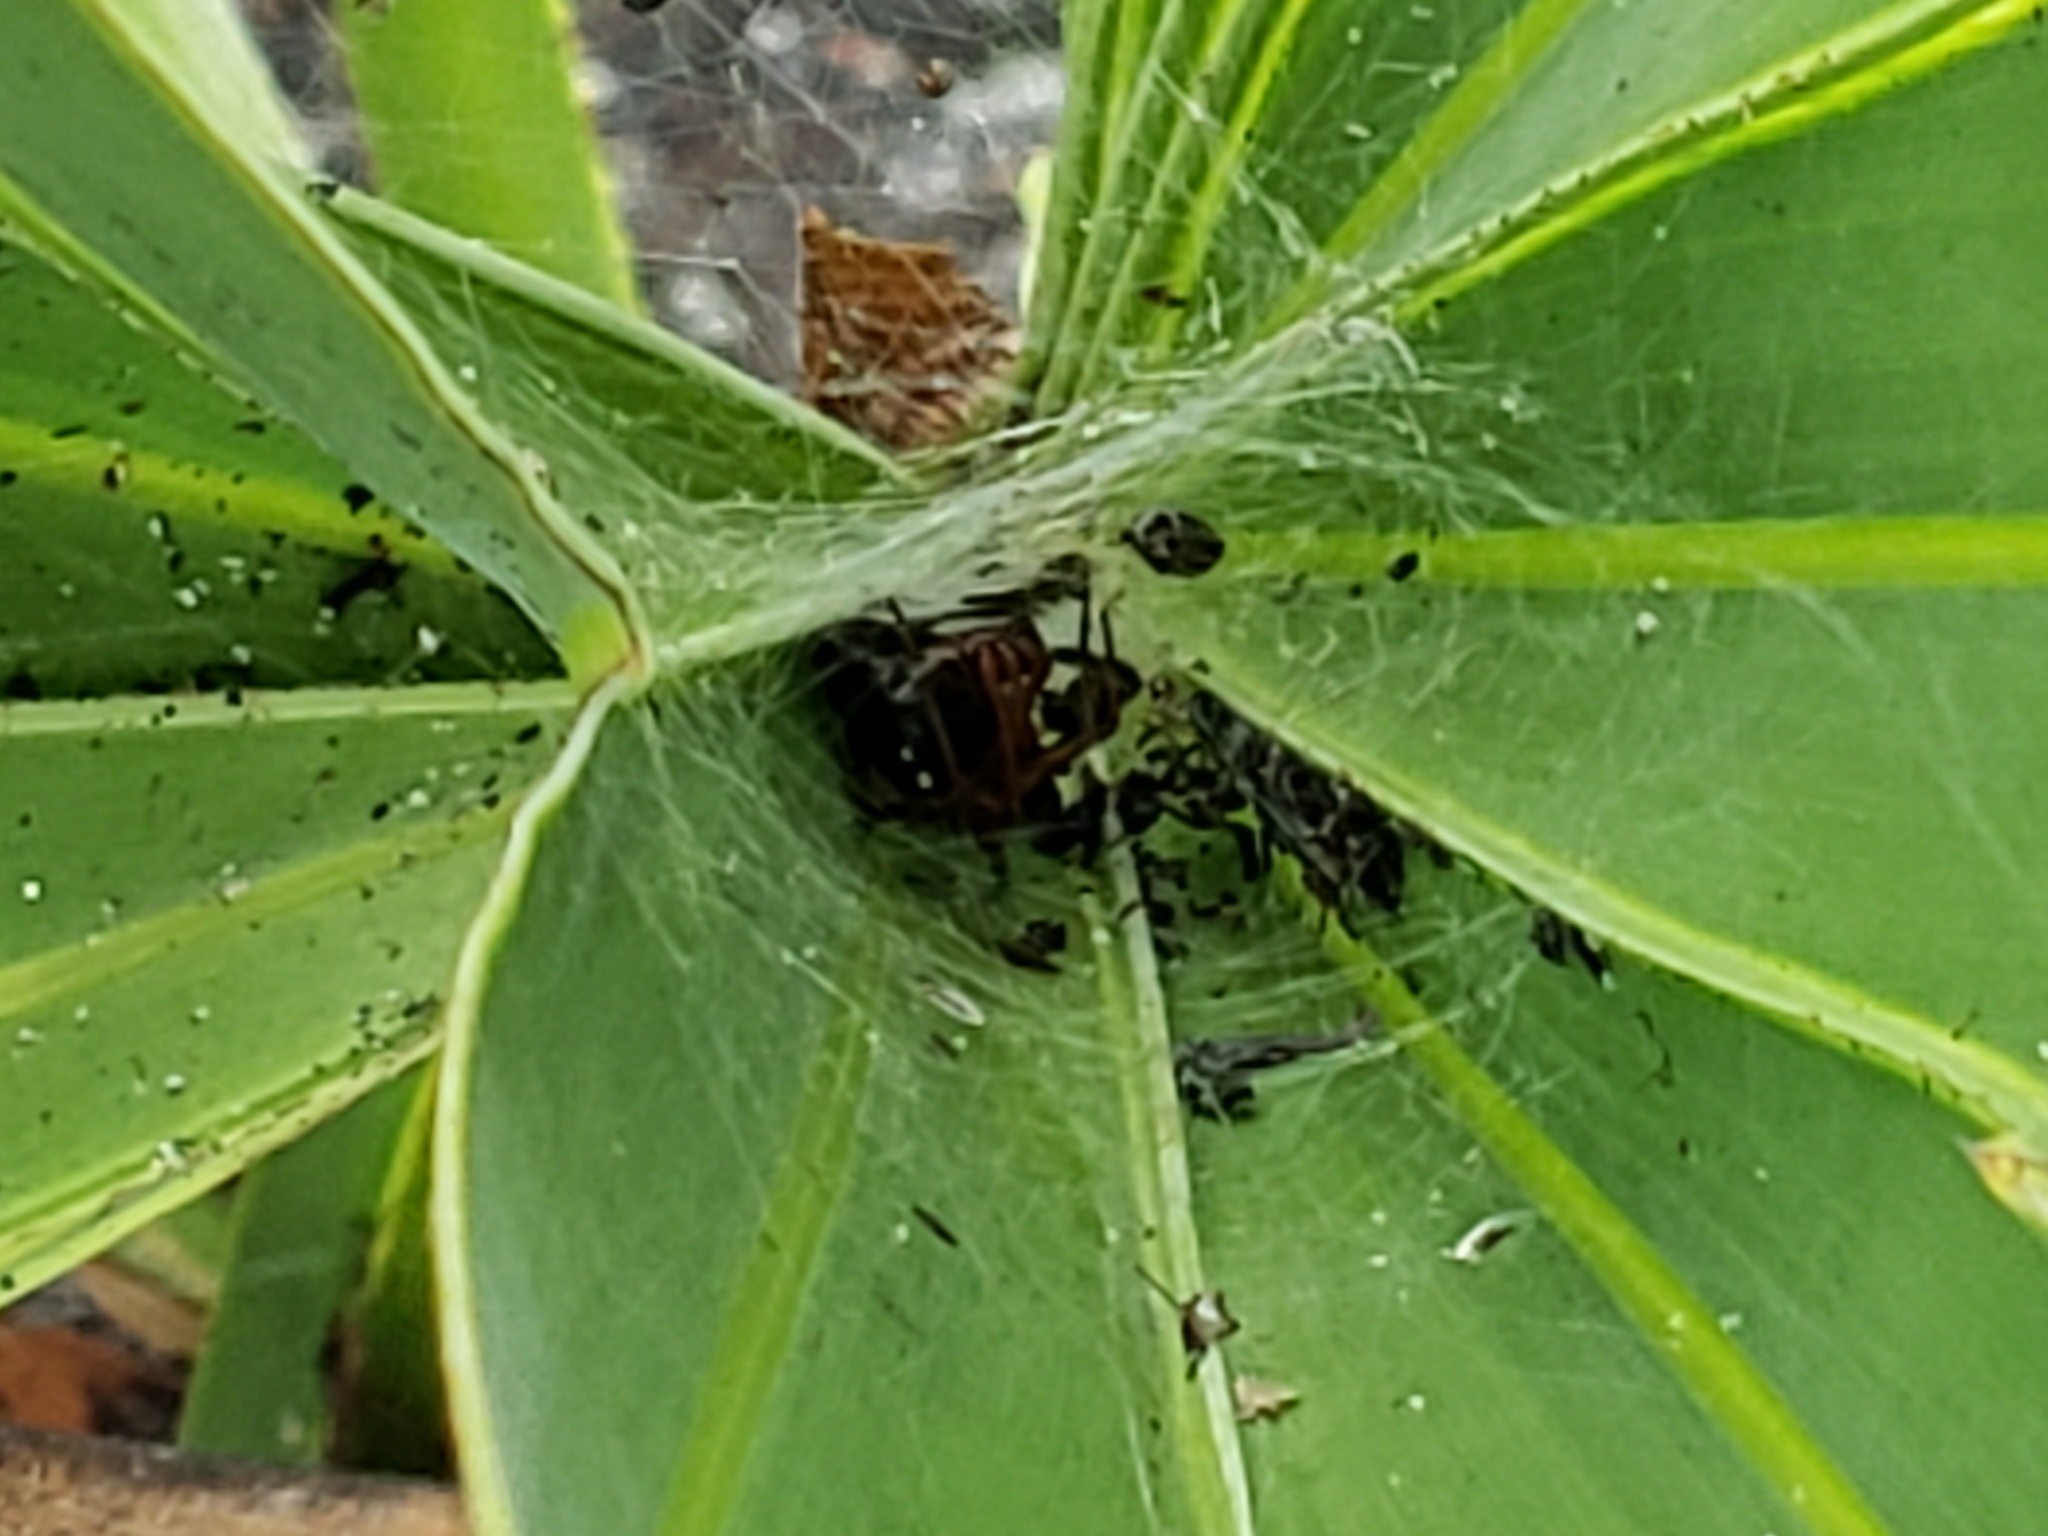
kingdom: Animalia
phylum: Arthropoda
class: Arachnida
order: Araneae
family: Theridiidae
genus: Latrodectus
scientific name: Latrodectus bishopi
